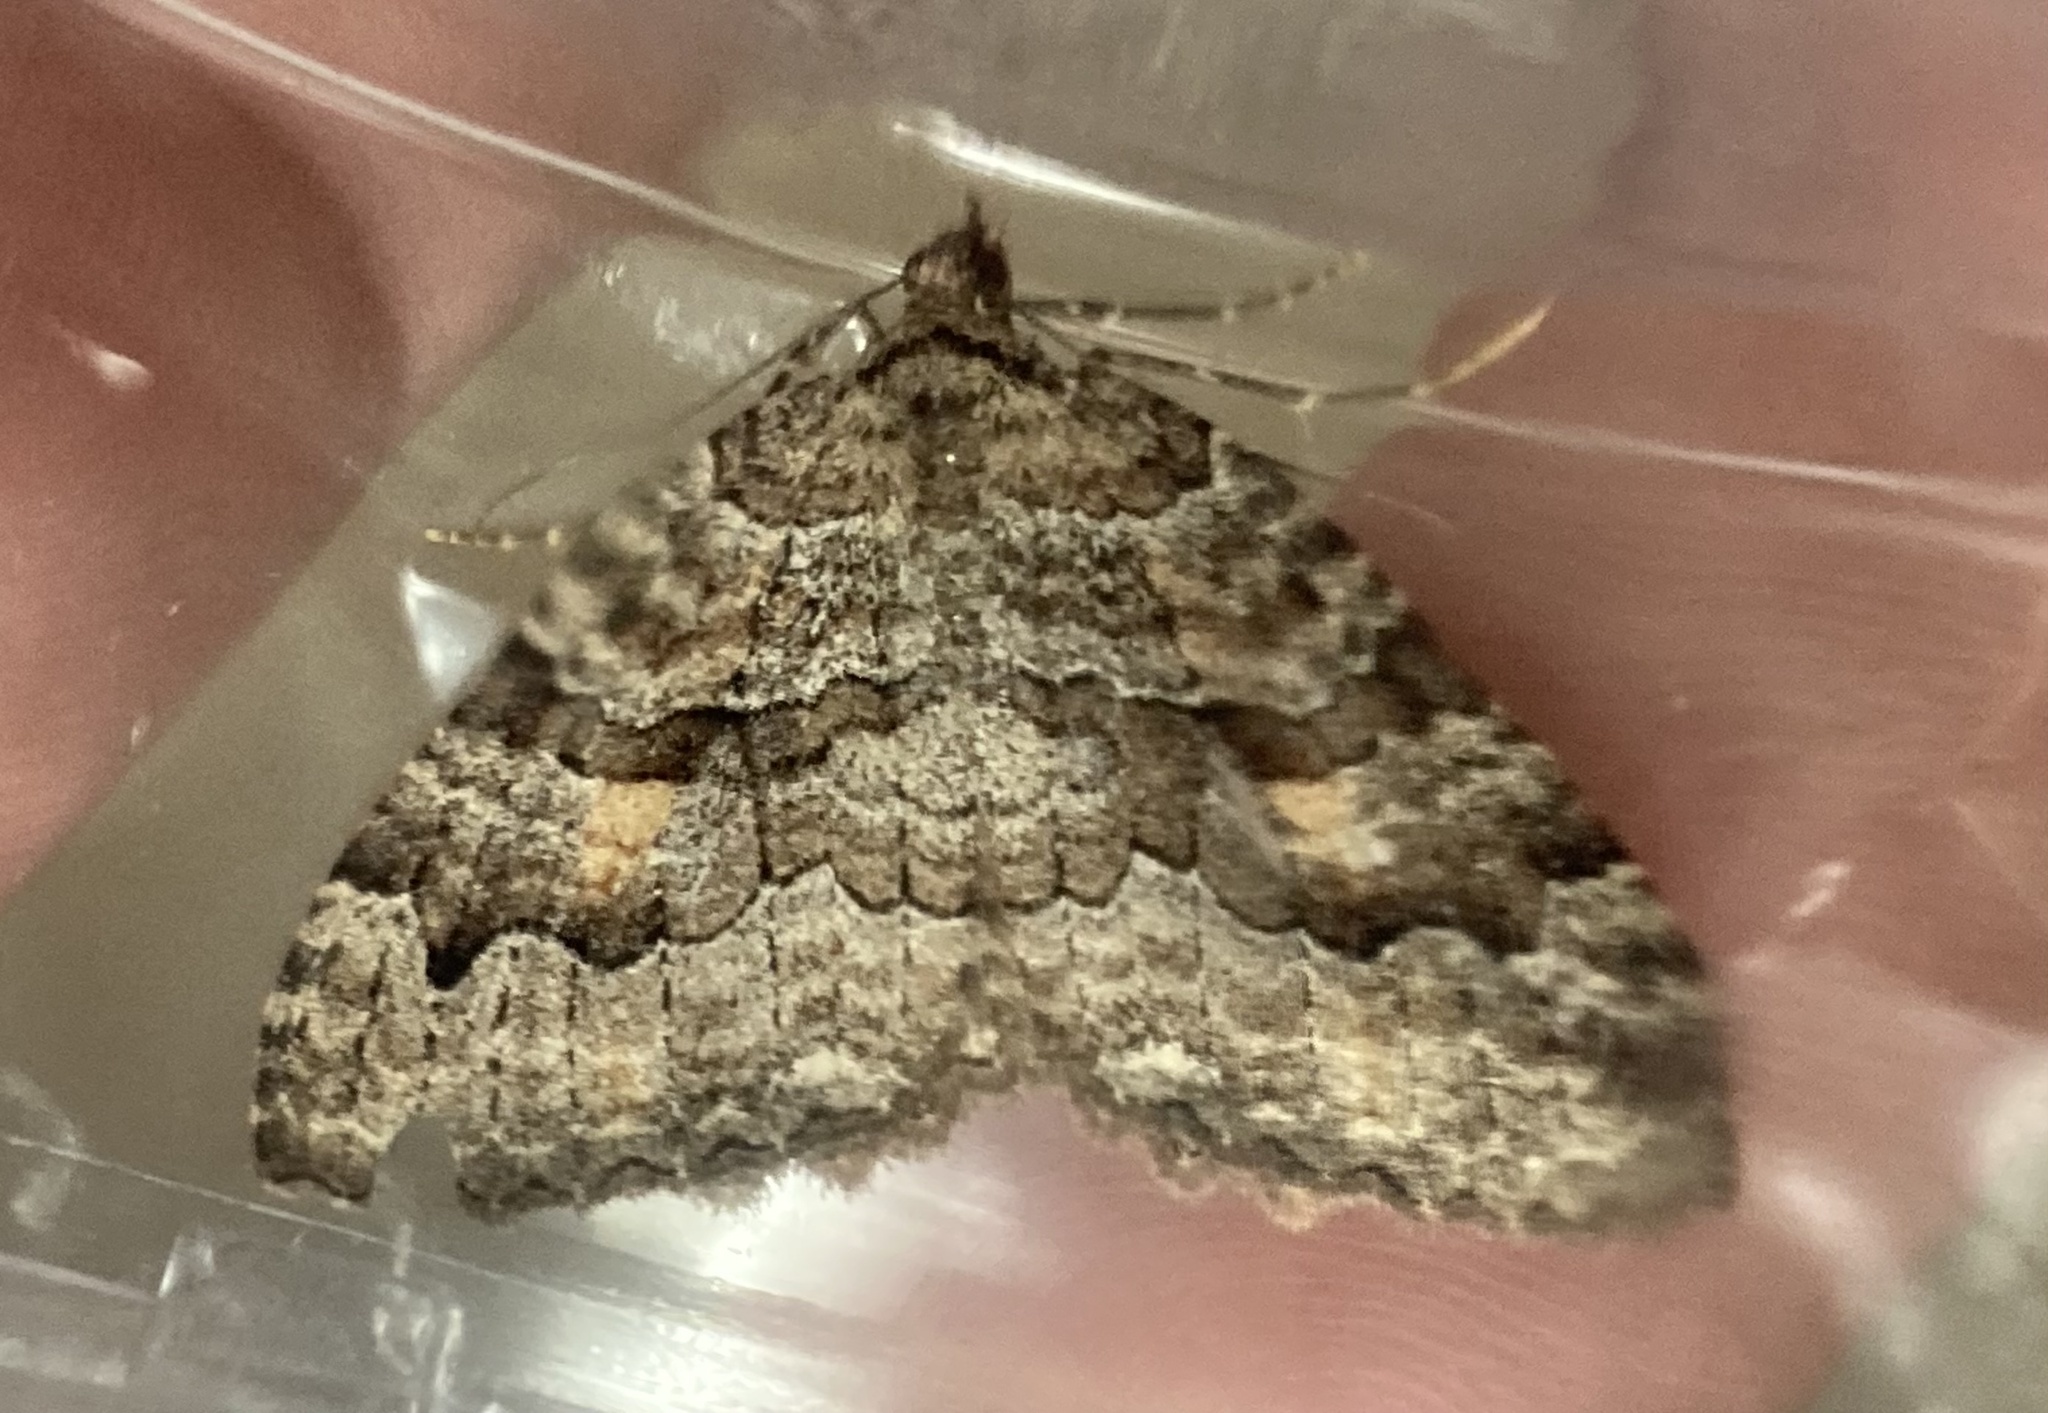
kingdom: Animalia
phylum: Arthropoda
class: Insecta
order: Lepidoptera
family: Geometridae
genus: Triphosa
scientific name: Triphosa haesitata
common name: Tissue moth
